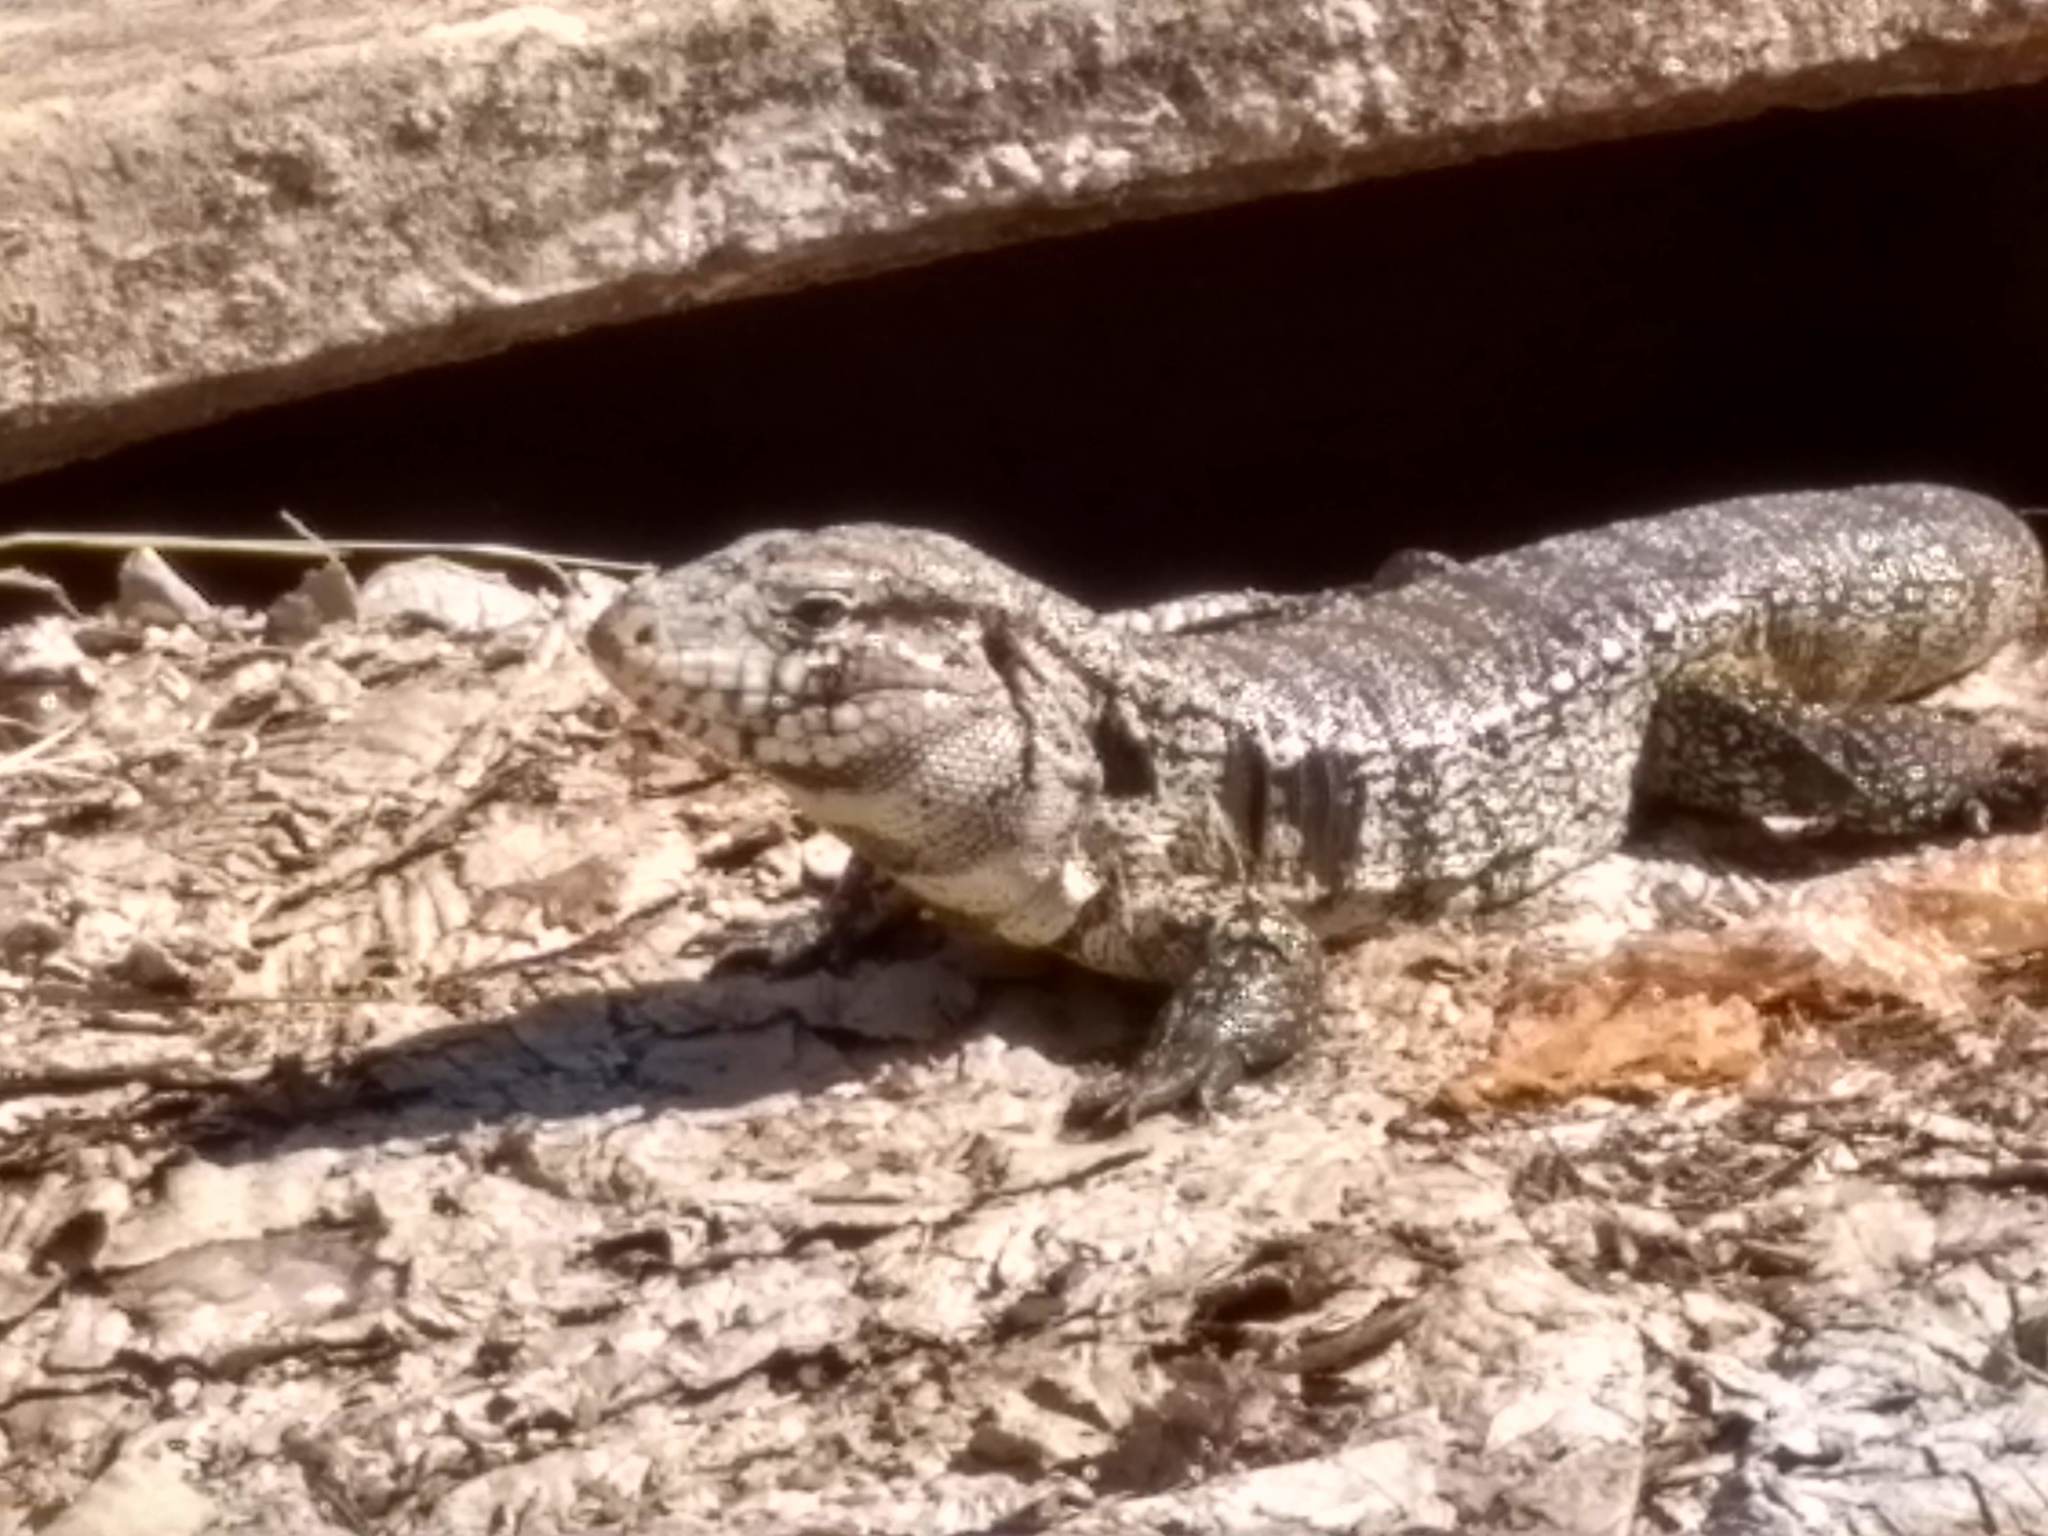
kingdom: Animalia
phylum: Chordata
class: Squamata
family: Teiidae
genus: Salvator
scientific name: Salvator merianae
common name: Argentine black and white tegu
